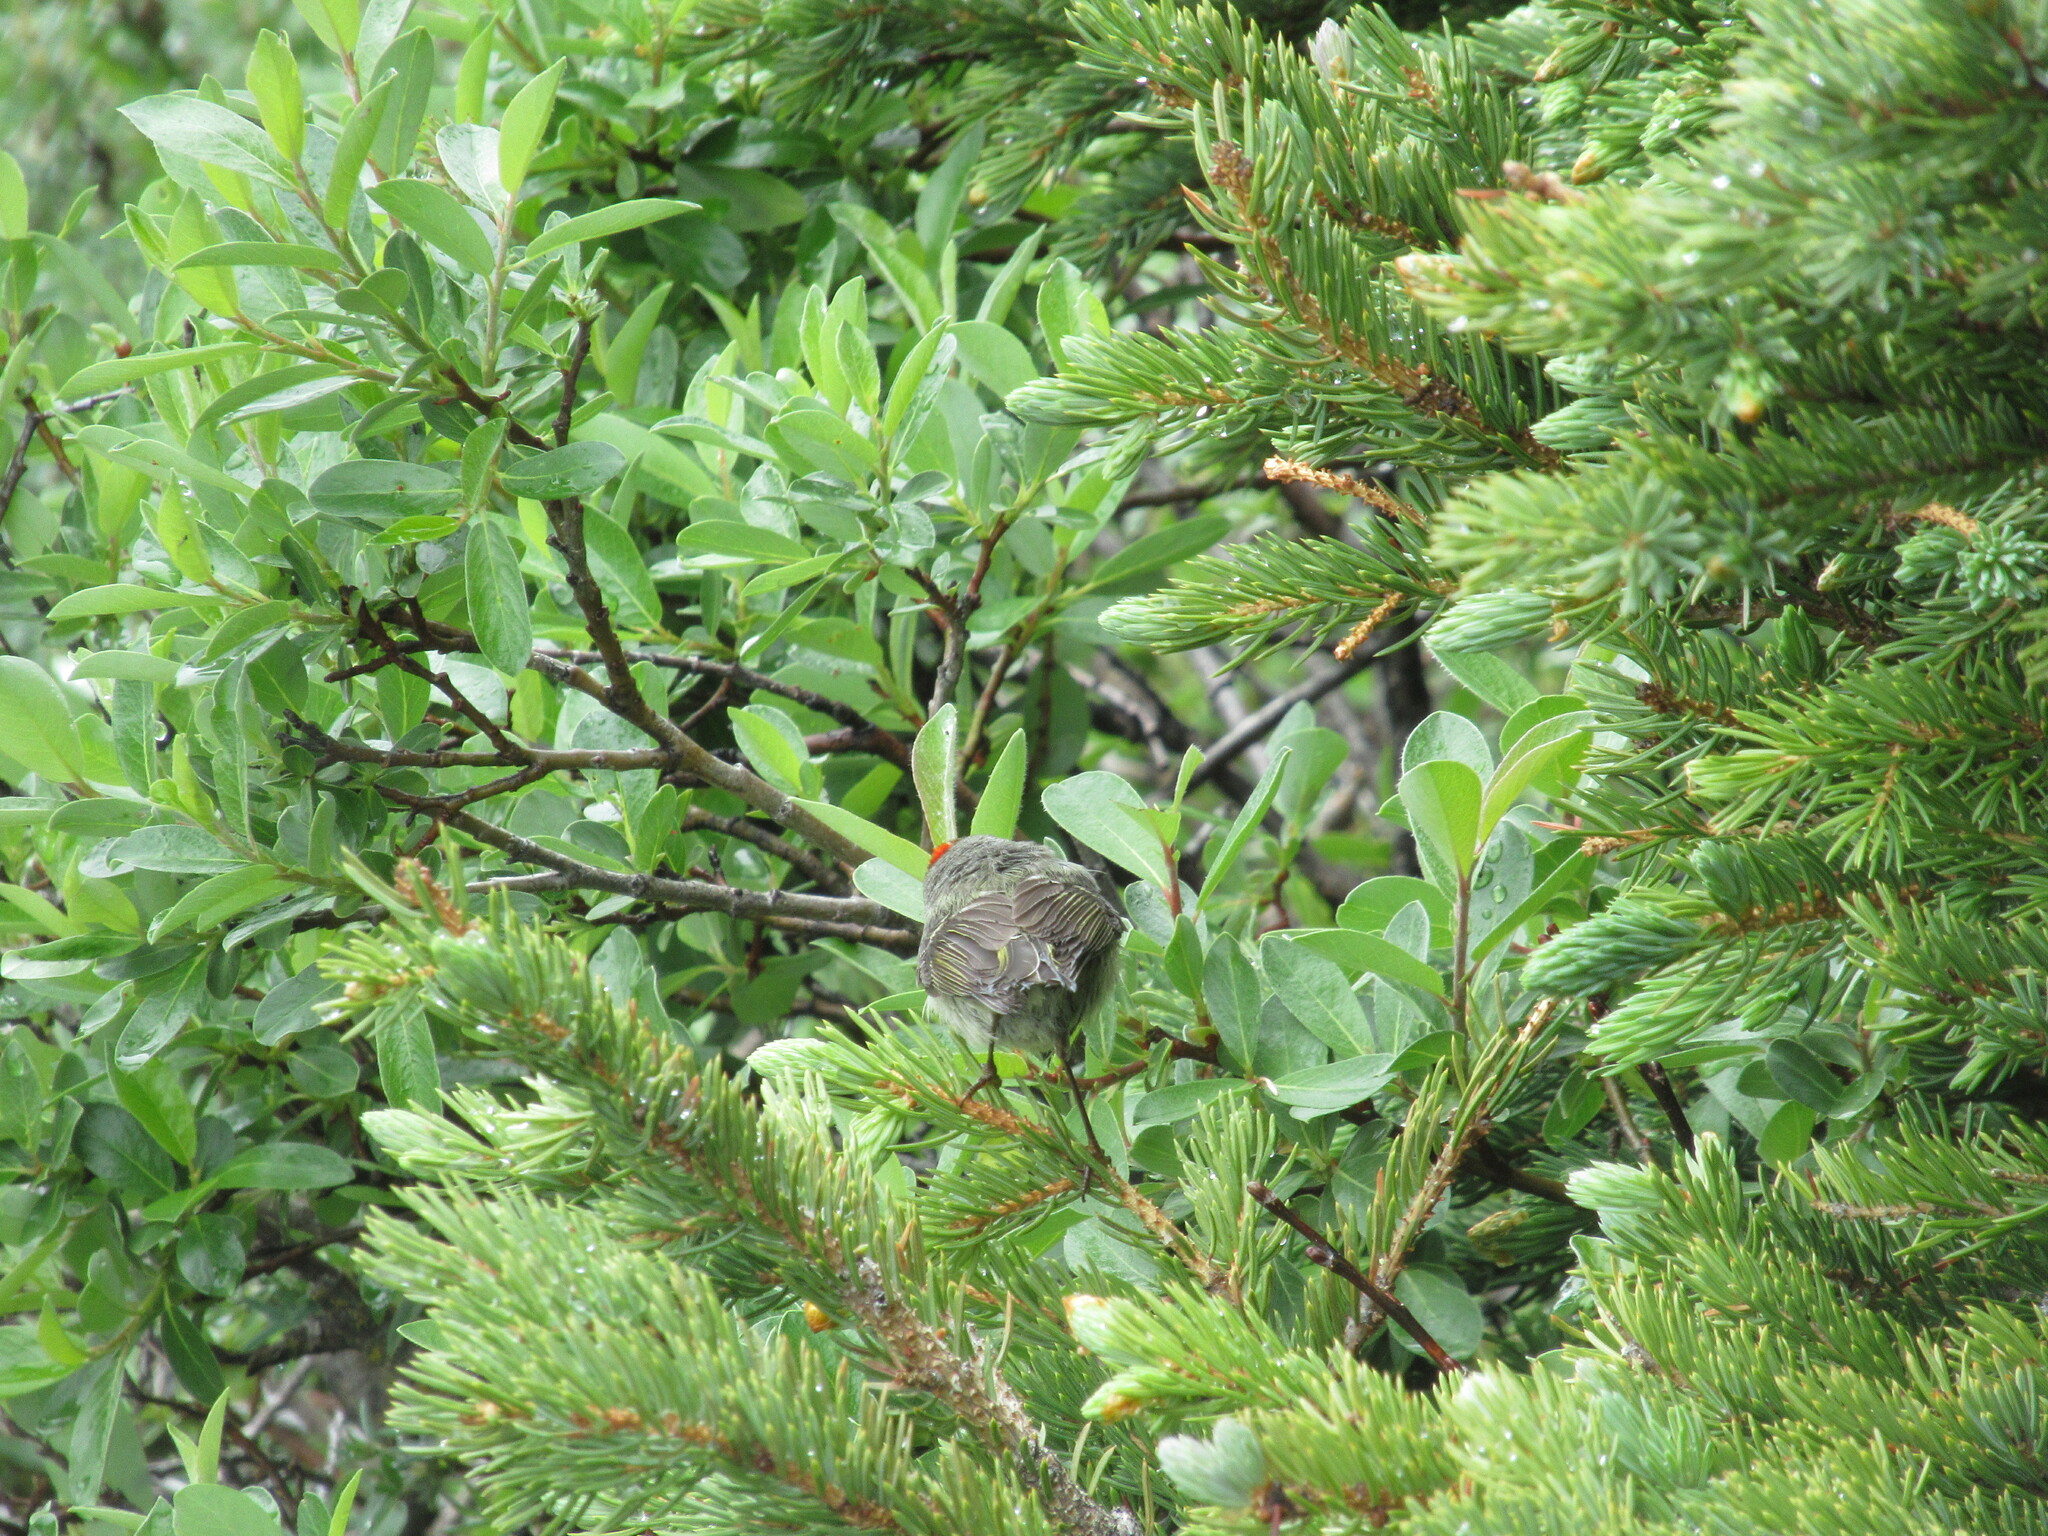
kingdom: Animalia
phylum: Chordata
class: Aves
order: Passeriformes
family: Regulidae
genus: Regulus
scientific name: Regulus calendula
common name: Ruby-crowned kinglet
